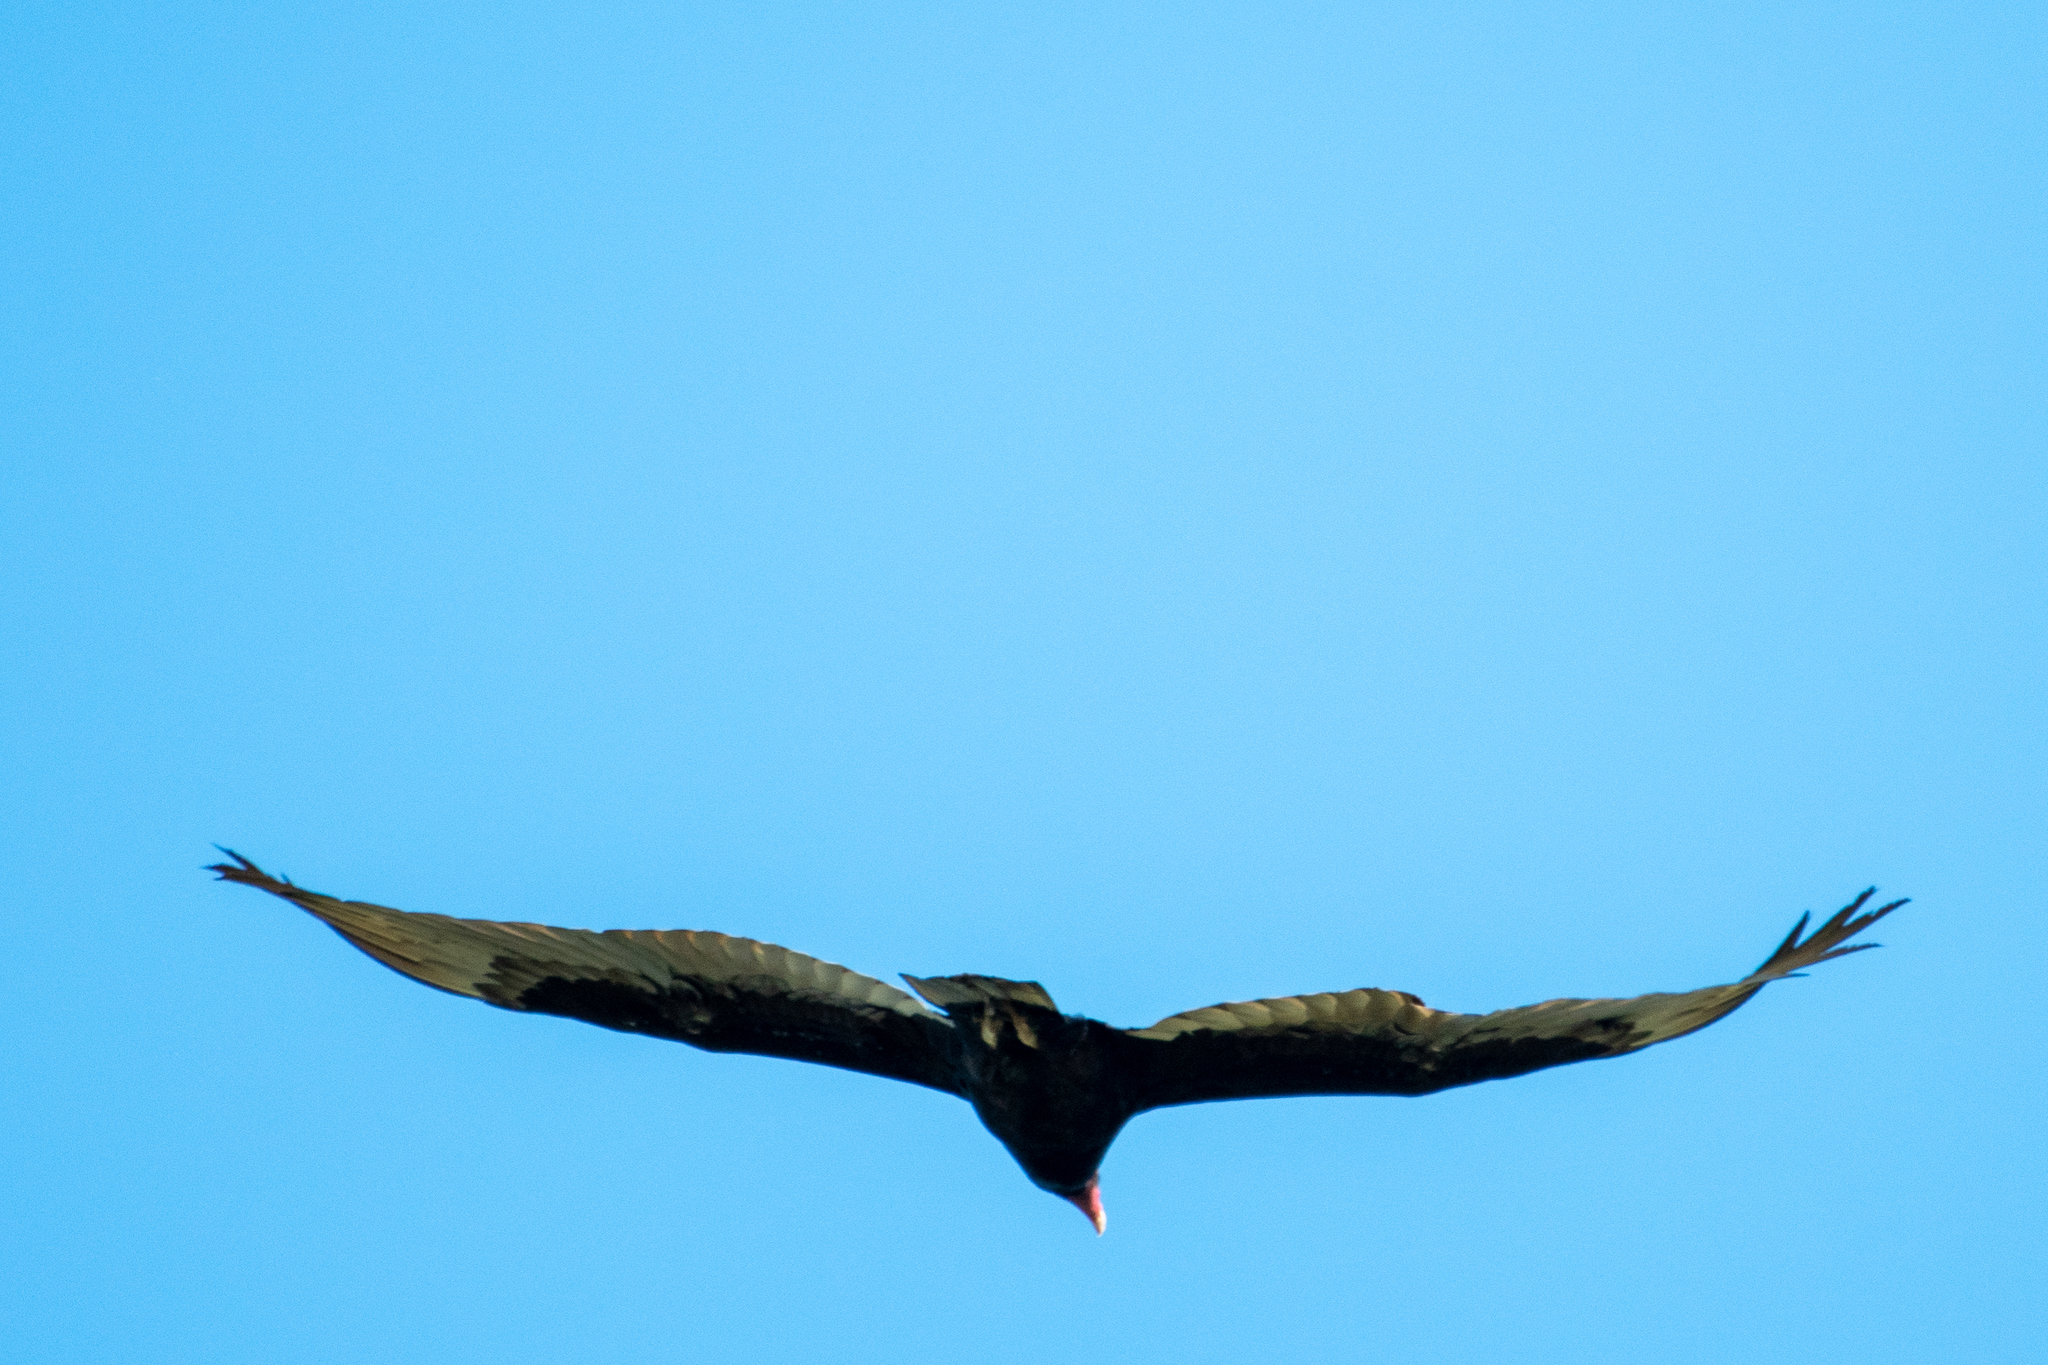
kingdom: Animalia
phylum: Chordata
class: Aves
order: Accipitriformes
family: Cathartidae
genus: Cathartes
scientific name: Cathartes aura
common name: Turkey vulture
